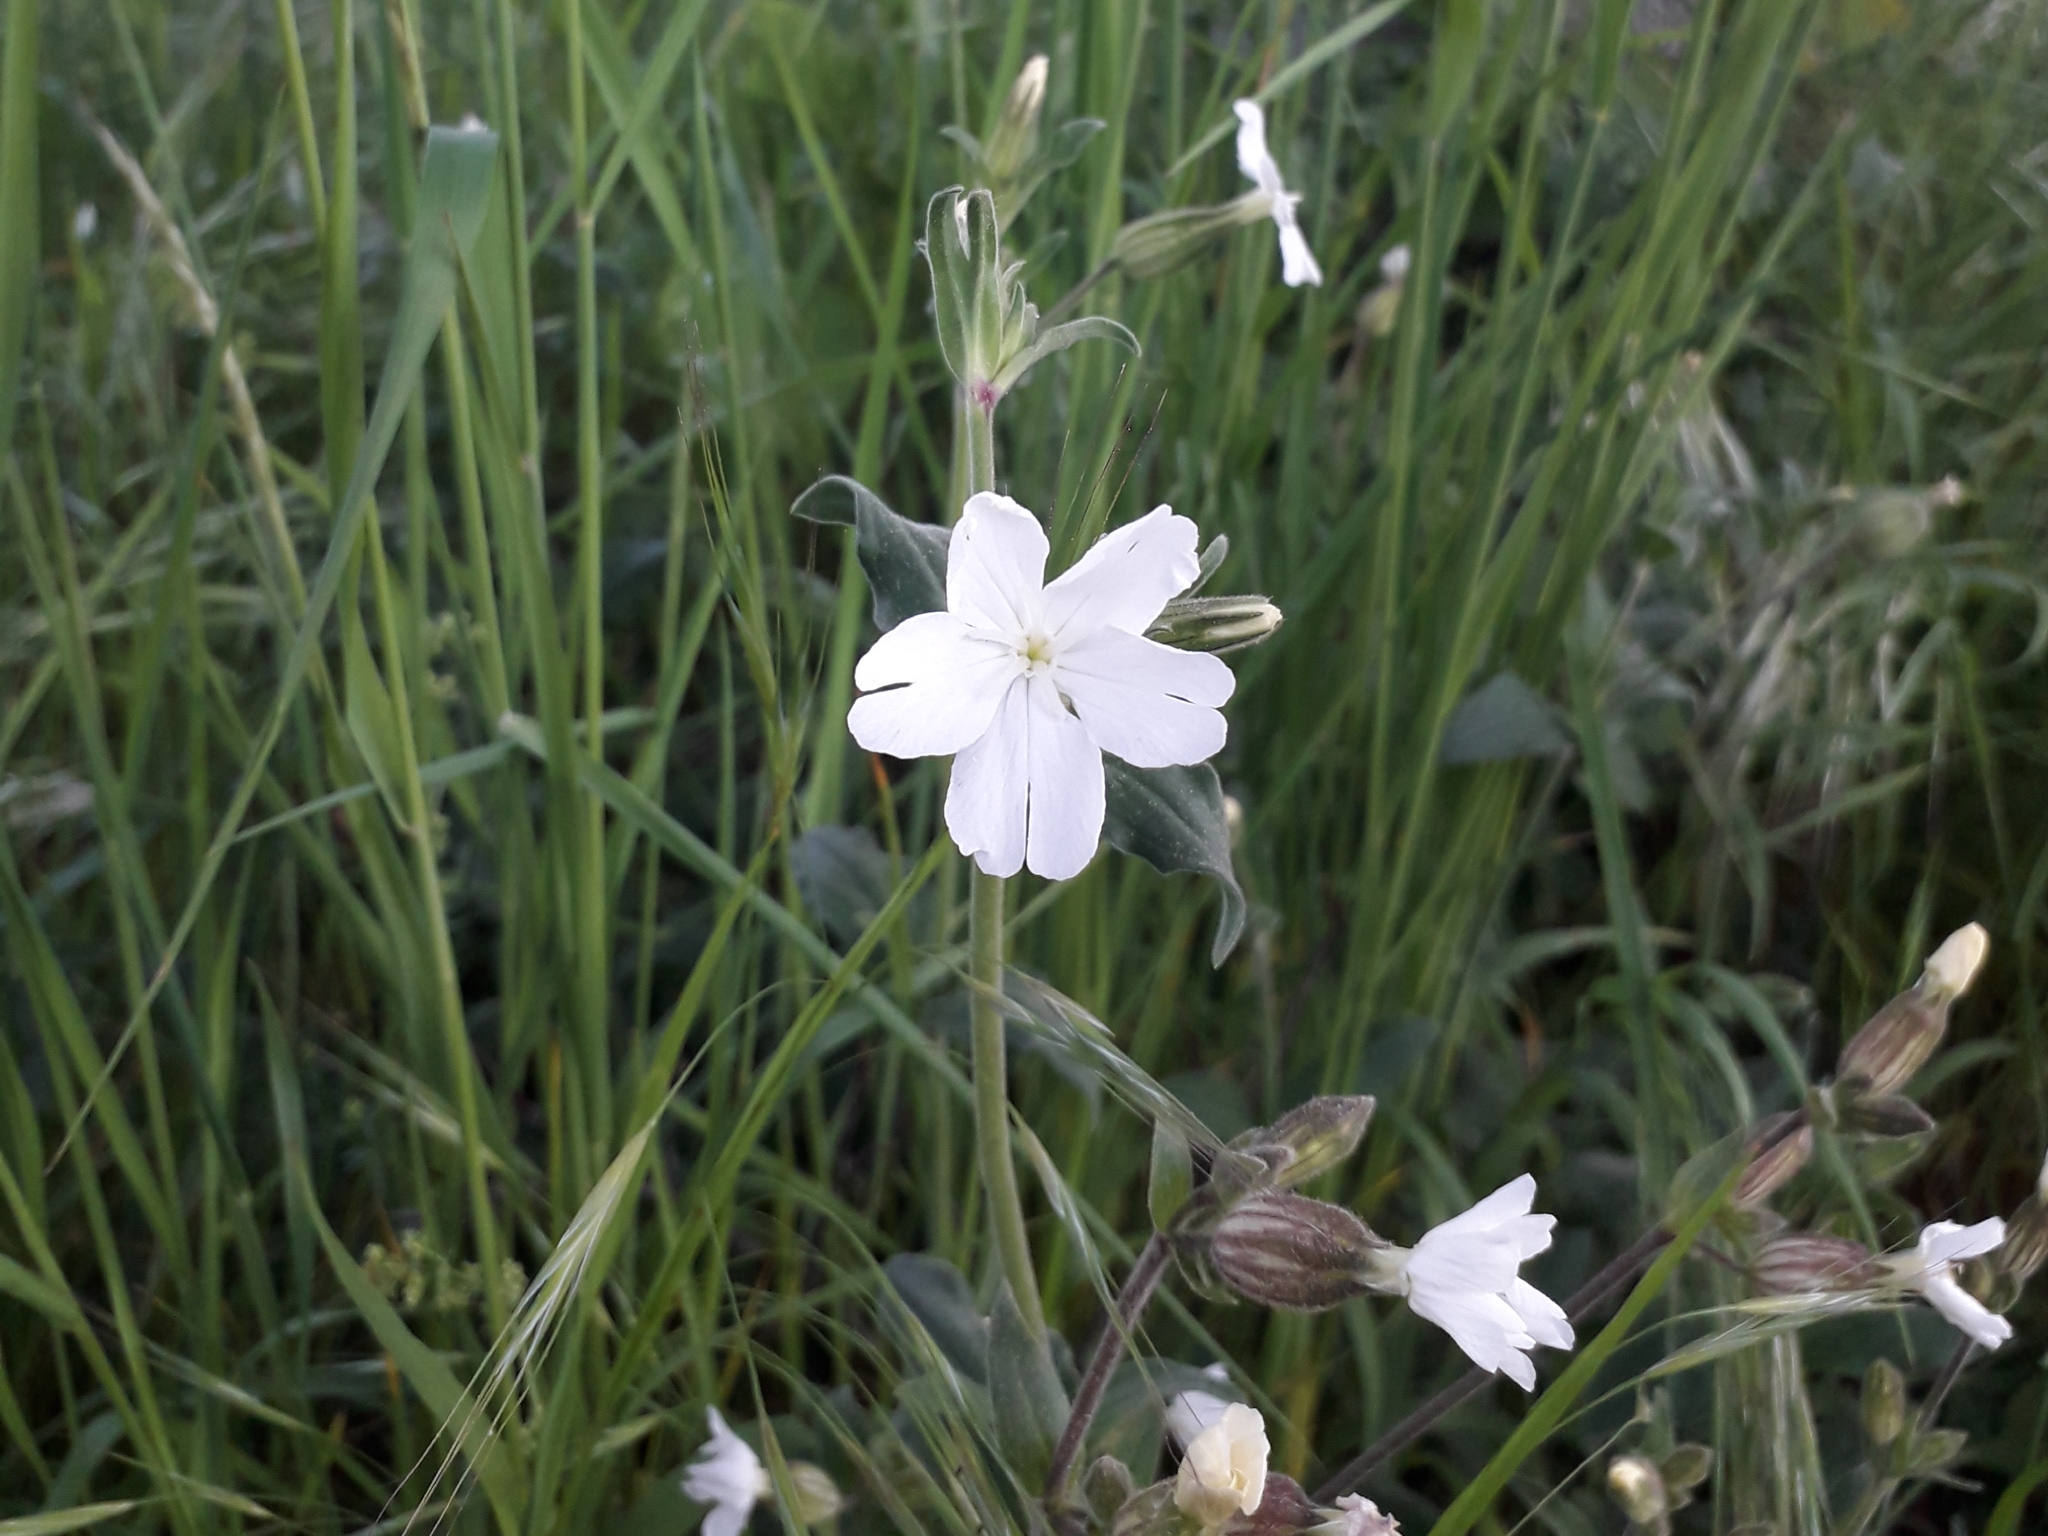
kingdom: Plantae
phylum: Tracheophyta
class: Magnoliopsida
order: Caryophyllales
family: Caryophyllaceae
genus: Silene
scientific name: Silene latifolia
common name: White campion
